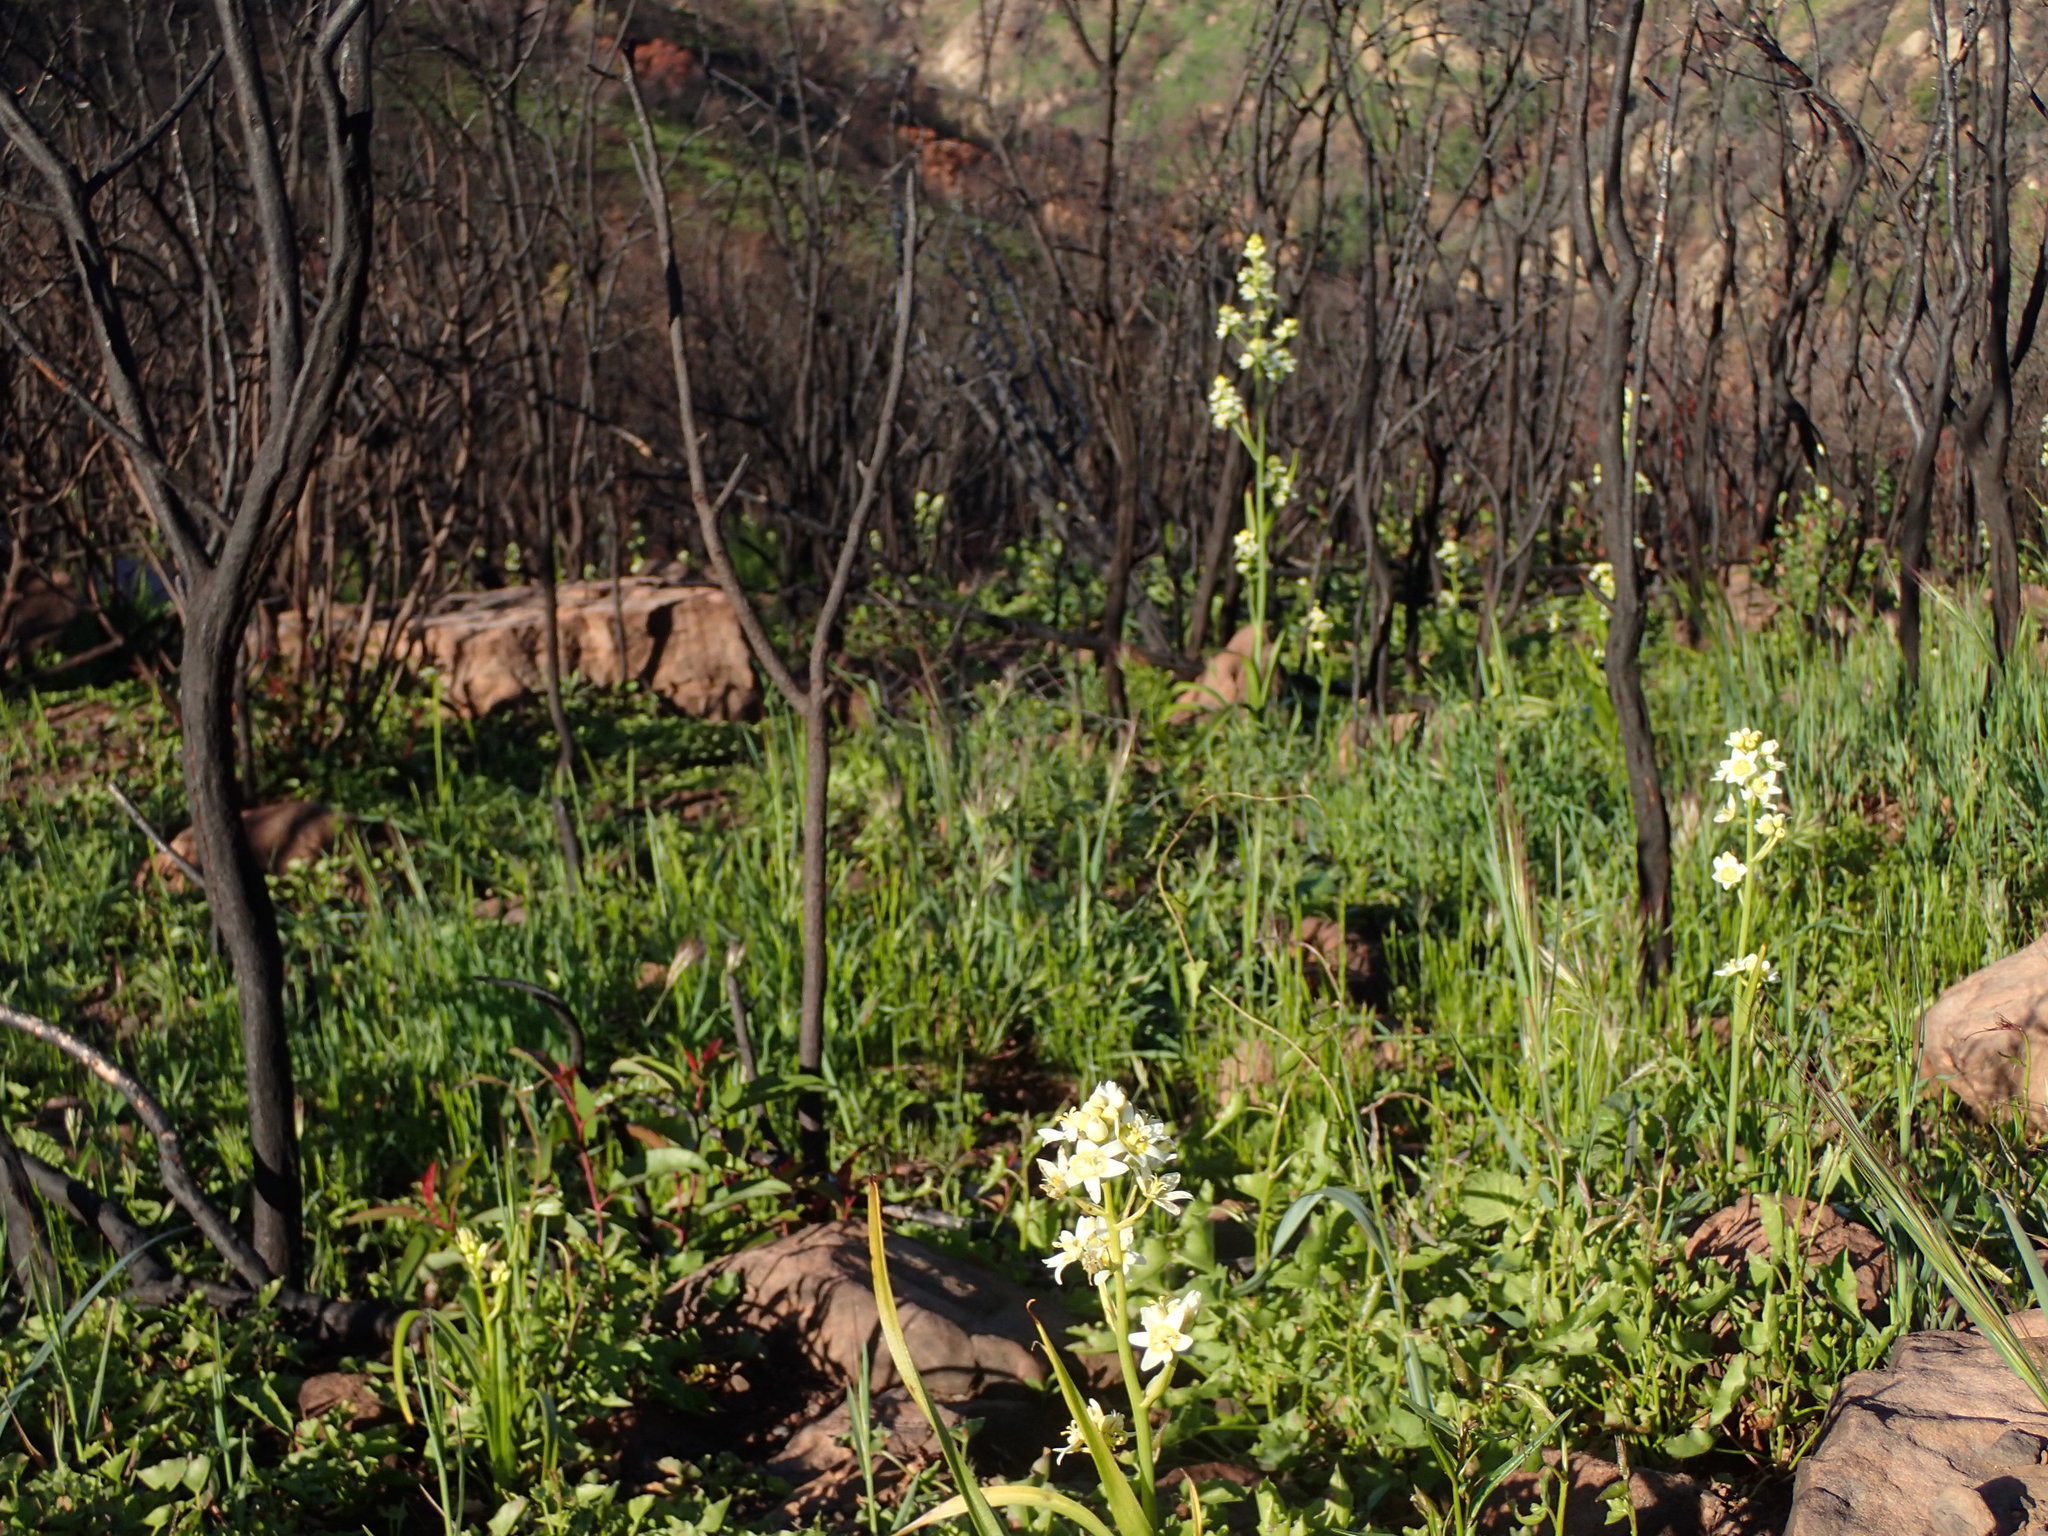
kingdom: Plantae
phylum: Tracheophyta
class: Liliopsida
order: Liliales
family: Melanthiaceae
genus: Toxicoscordion
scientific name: Toxicoscordion fremontii
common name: Fremont's death camas
